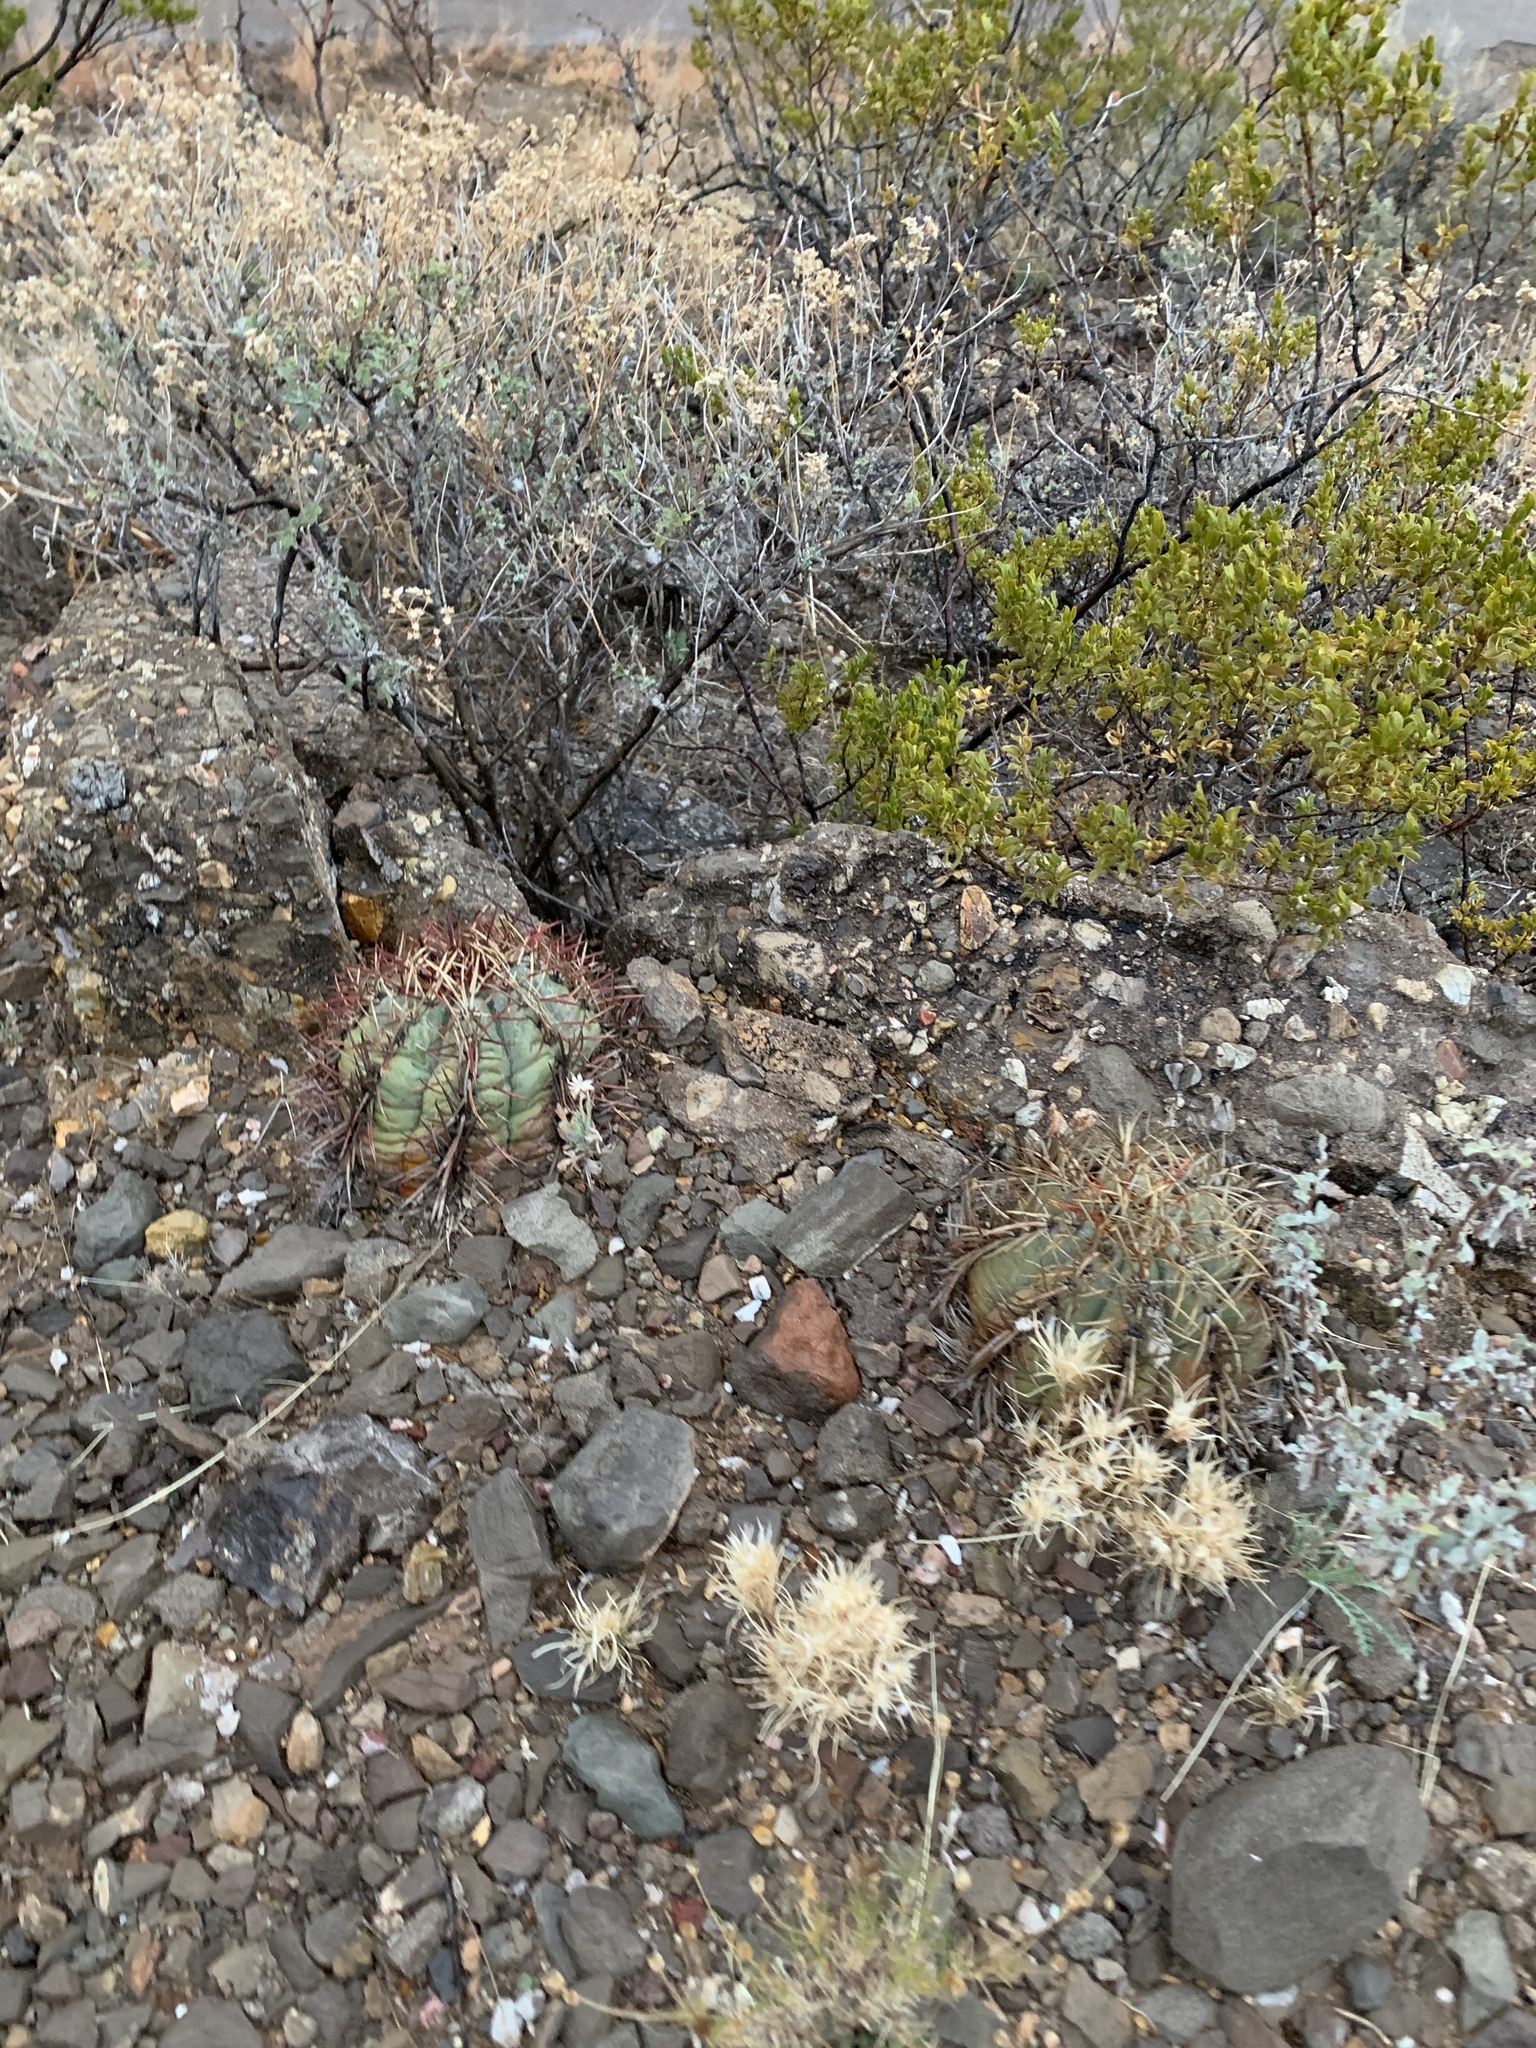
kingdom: Plantae
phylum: Tracheophyta
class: Magnoliopsida
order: Caryophyllales
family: Cactaceae
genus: Echinocactus
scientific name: Echinocactus horizonthalonius
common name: Devilshead
